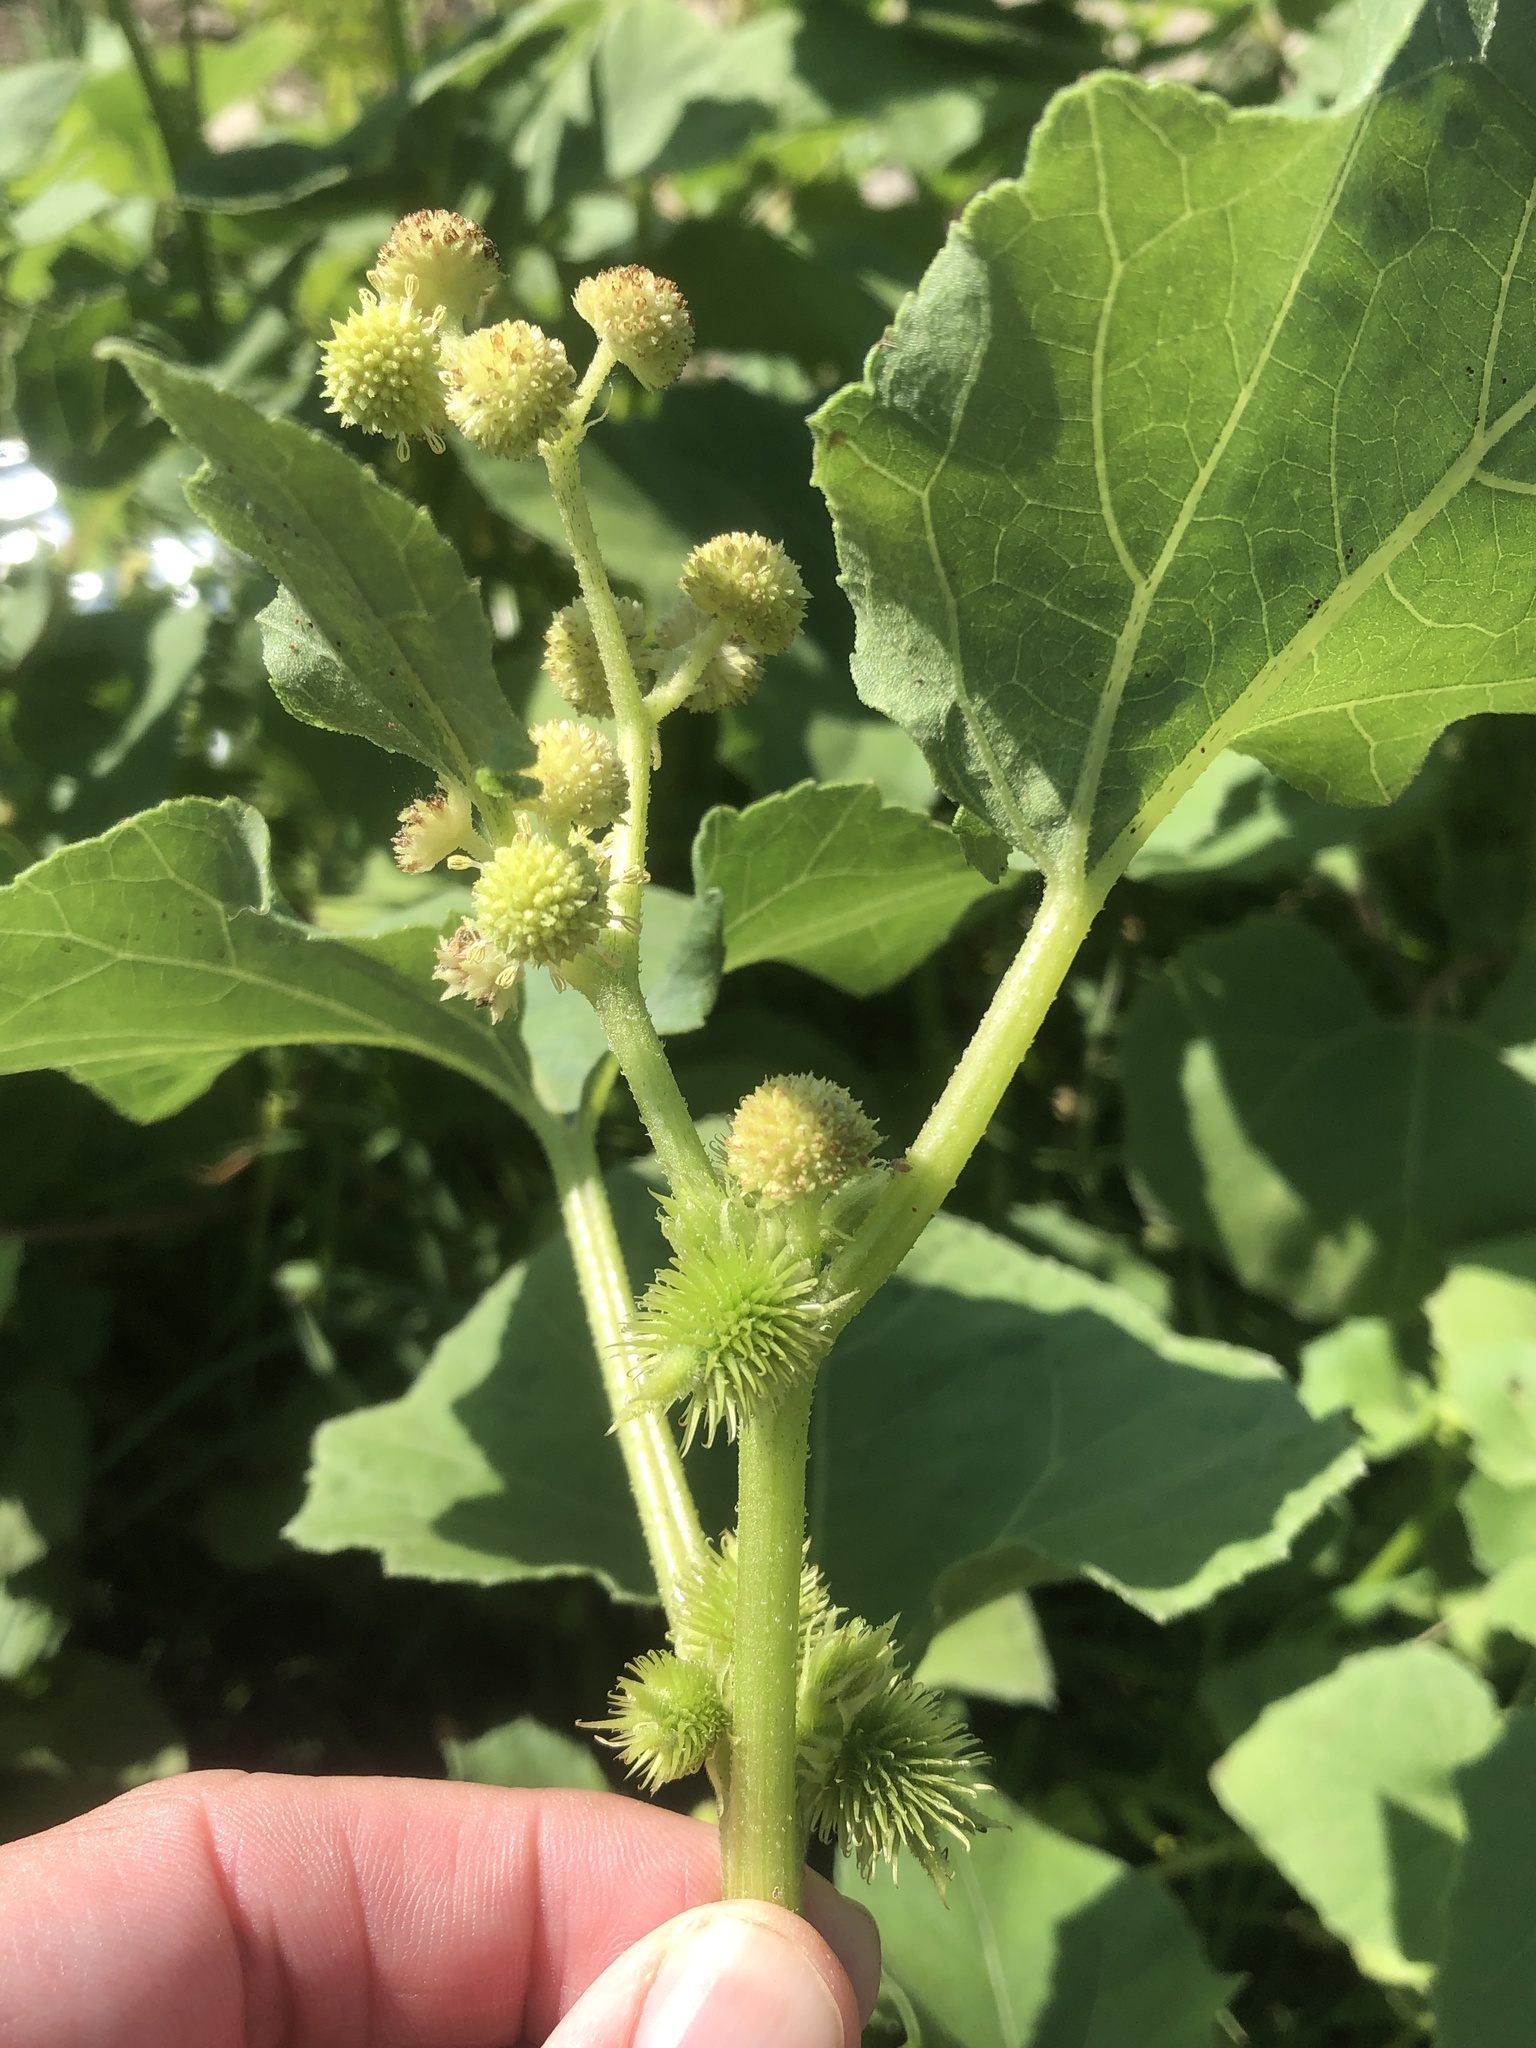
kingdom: Plantae
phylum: Tracheophyta
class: Magnoliopsida
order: Asterales
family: Asteraceae
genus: Xanthium
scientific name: Xanthium strumarium
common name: Rough cocklebur
